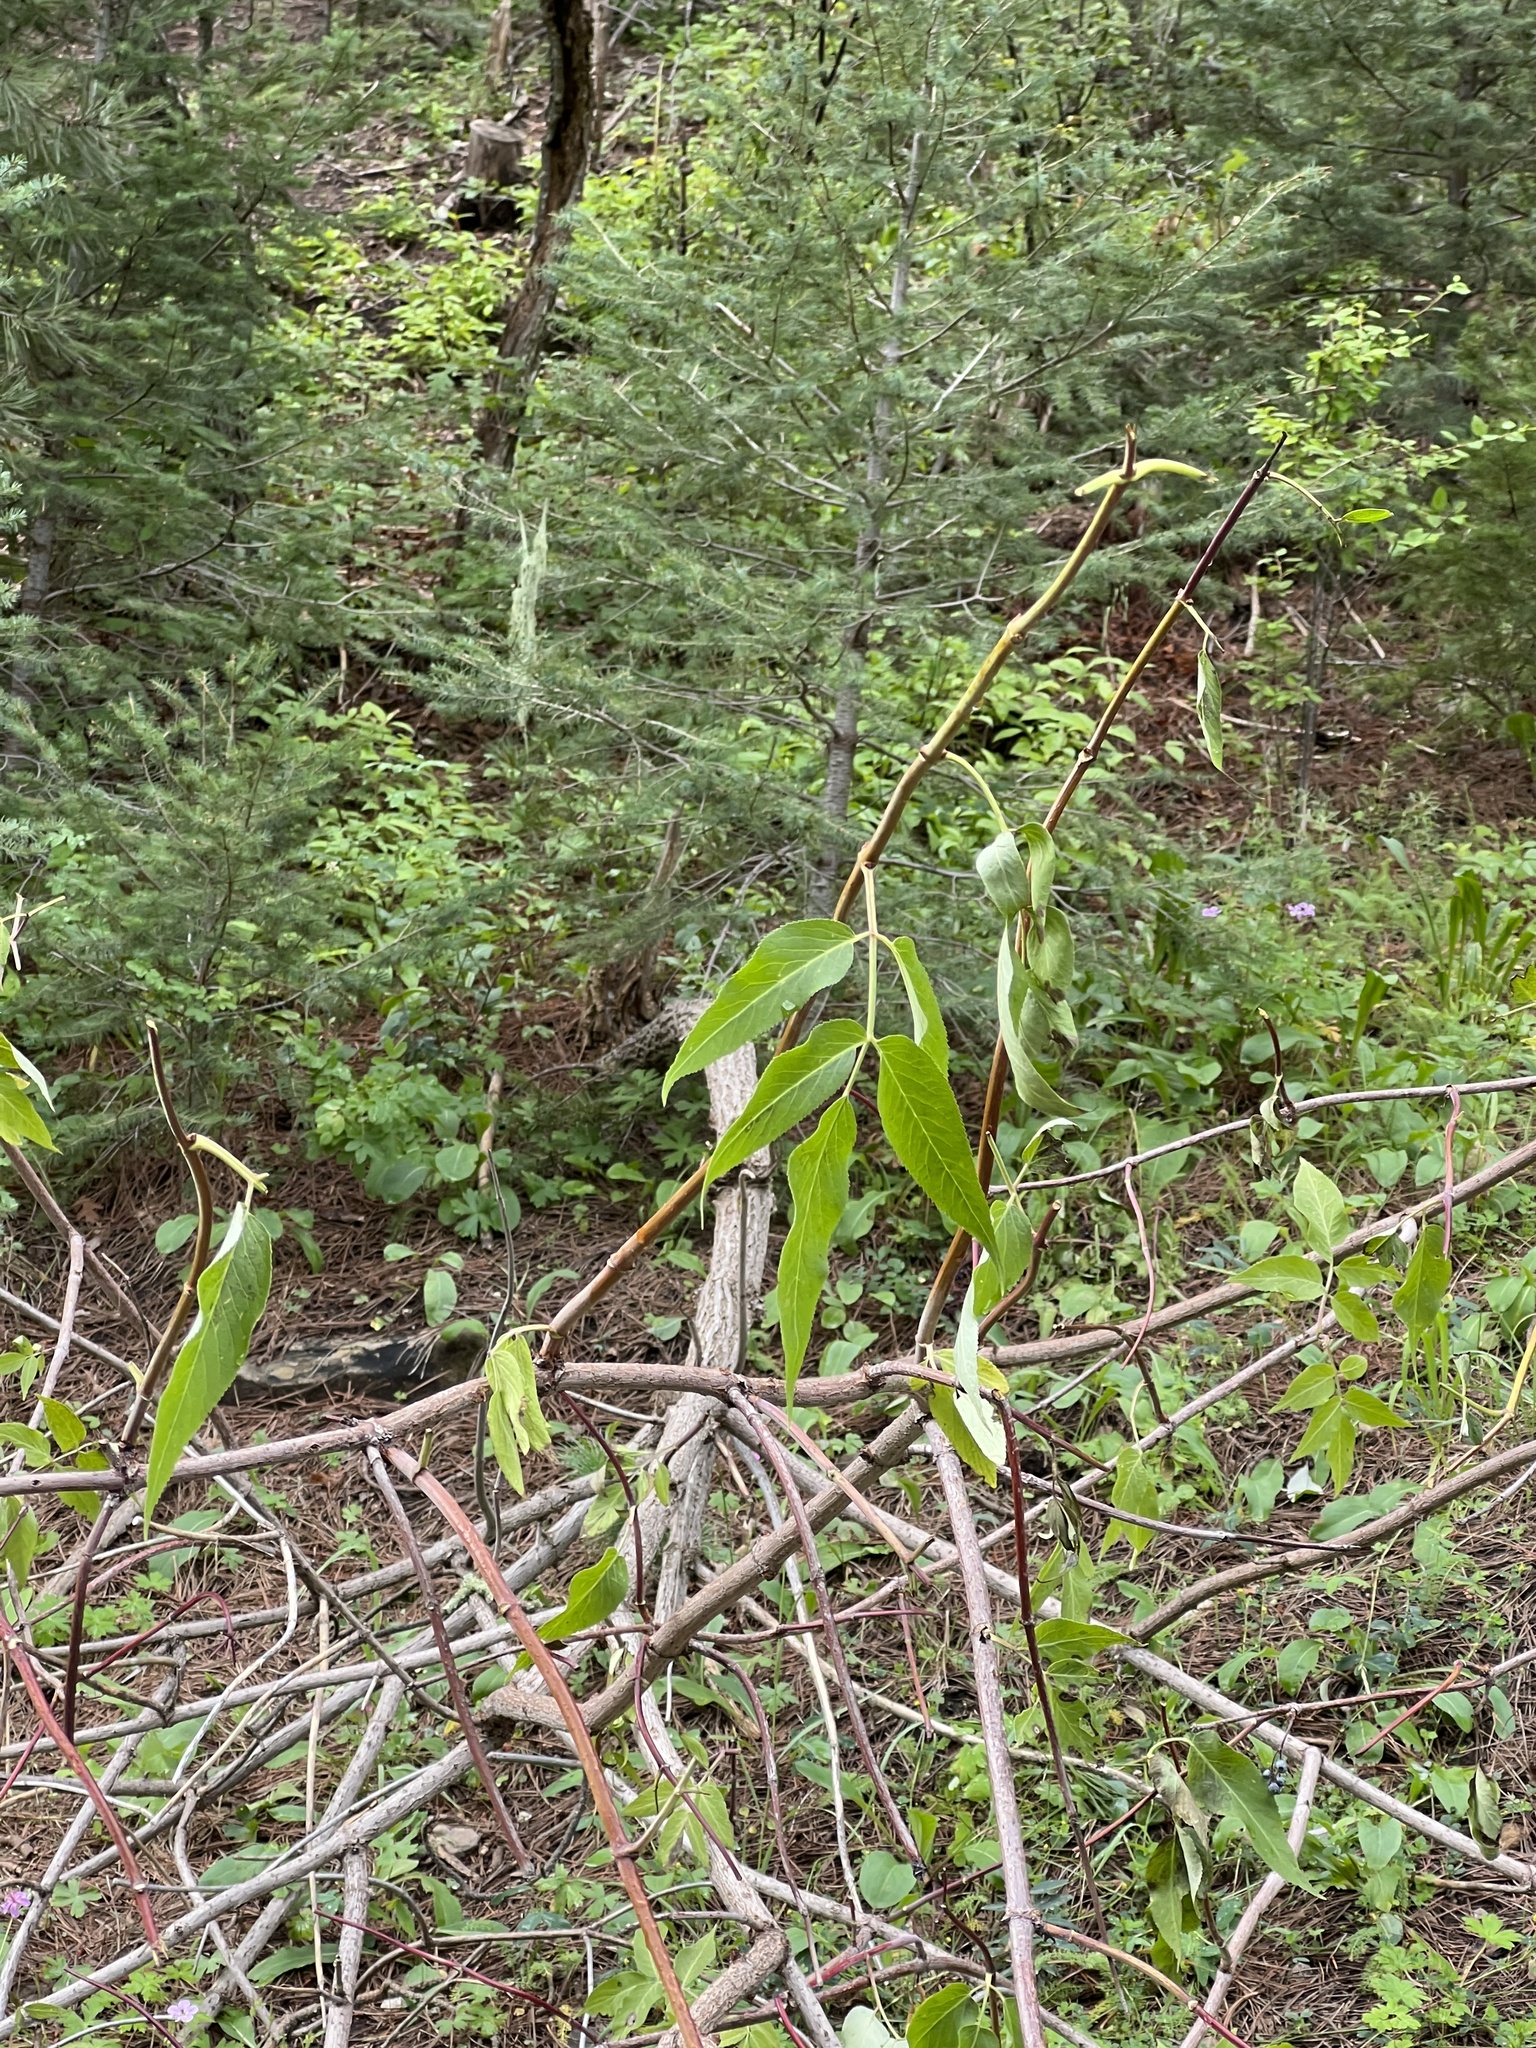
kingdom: Plantae
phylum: Tracheophyta
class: Magnoliopsida
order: Dipsacales
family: Viburnaceae
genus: Sambucus
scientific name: Sambucus cerulea
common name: Blue elder
